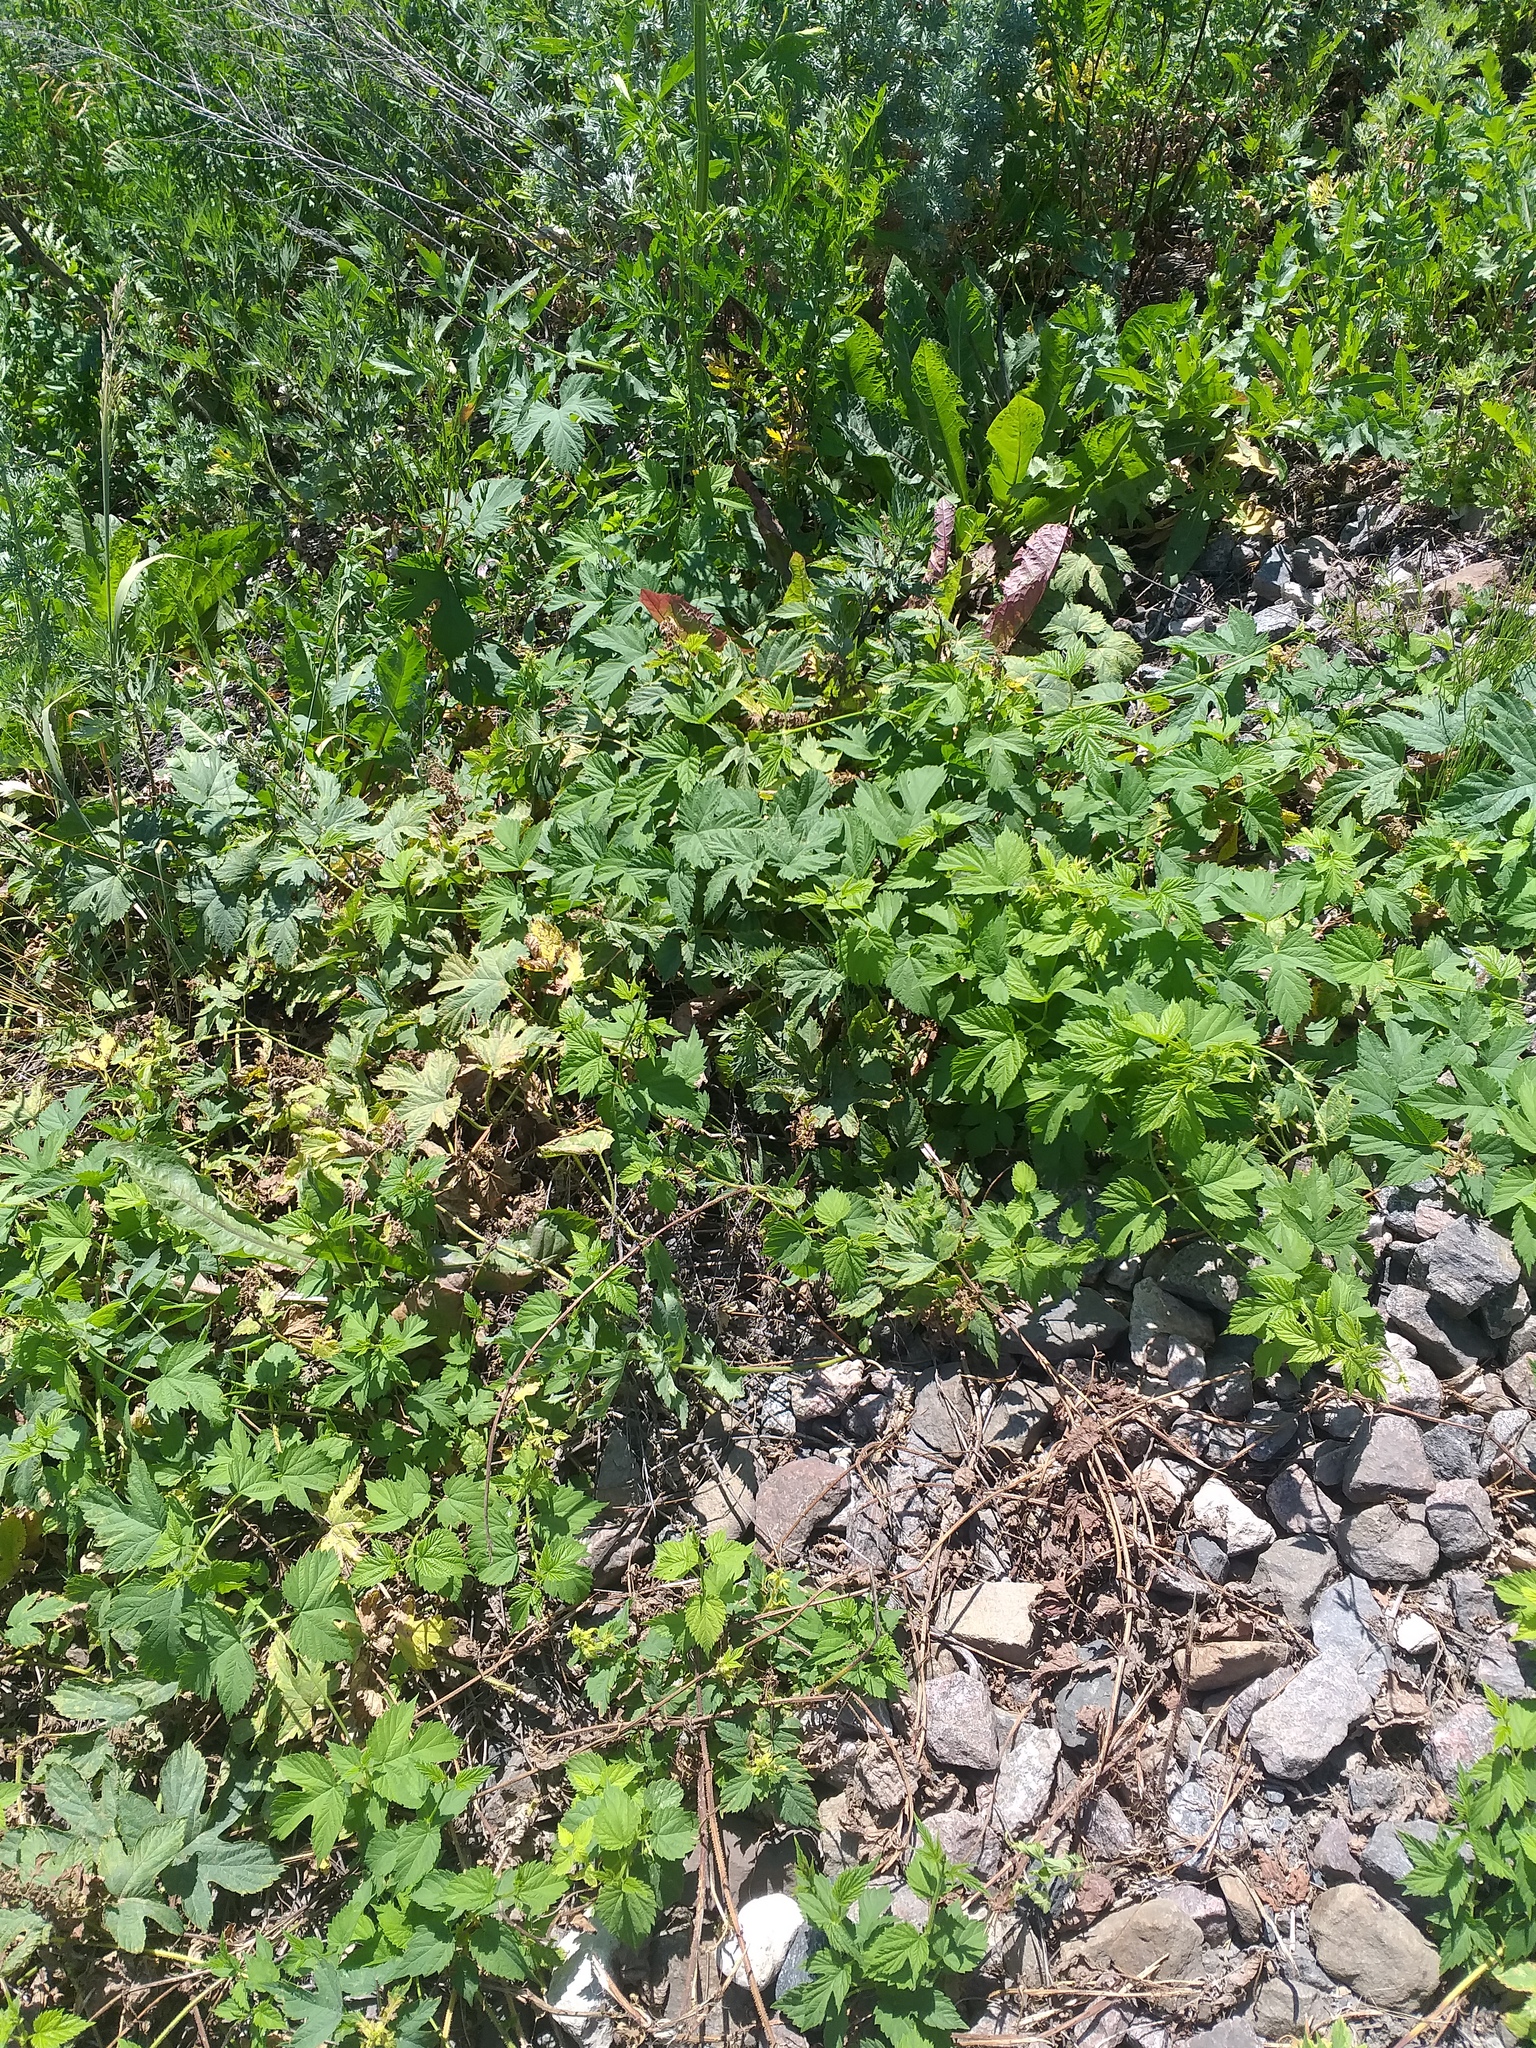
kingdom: Plantae
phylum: Tracheophyta
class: Magnoliopsida
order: Rosales
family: Cannabaceae
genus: Humulus
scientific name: Humulus lupulus
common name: Hop
